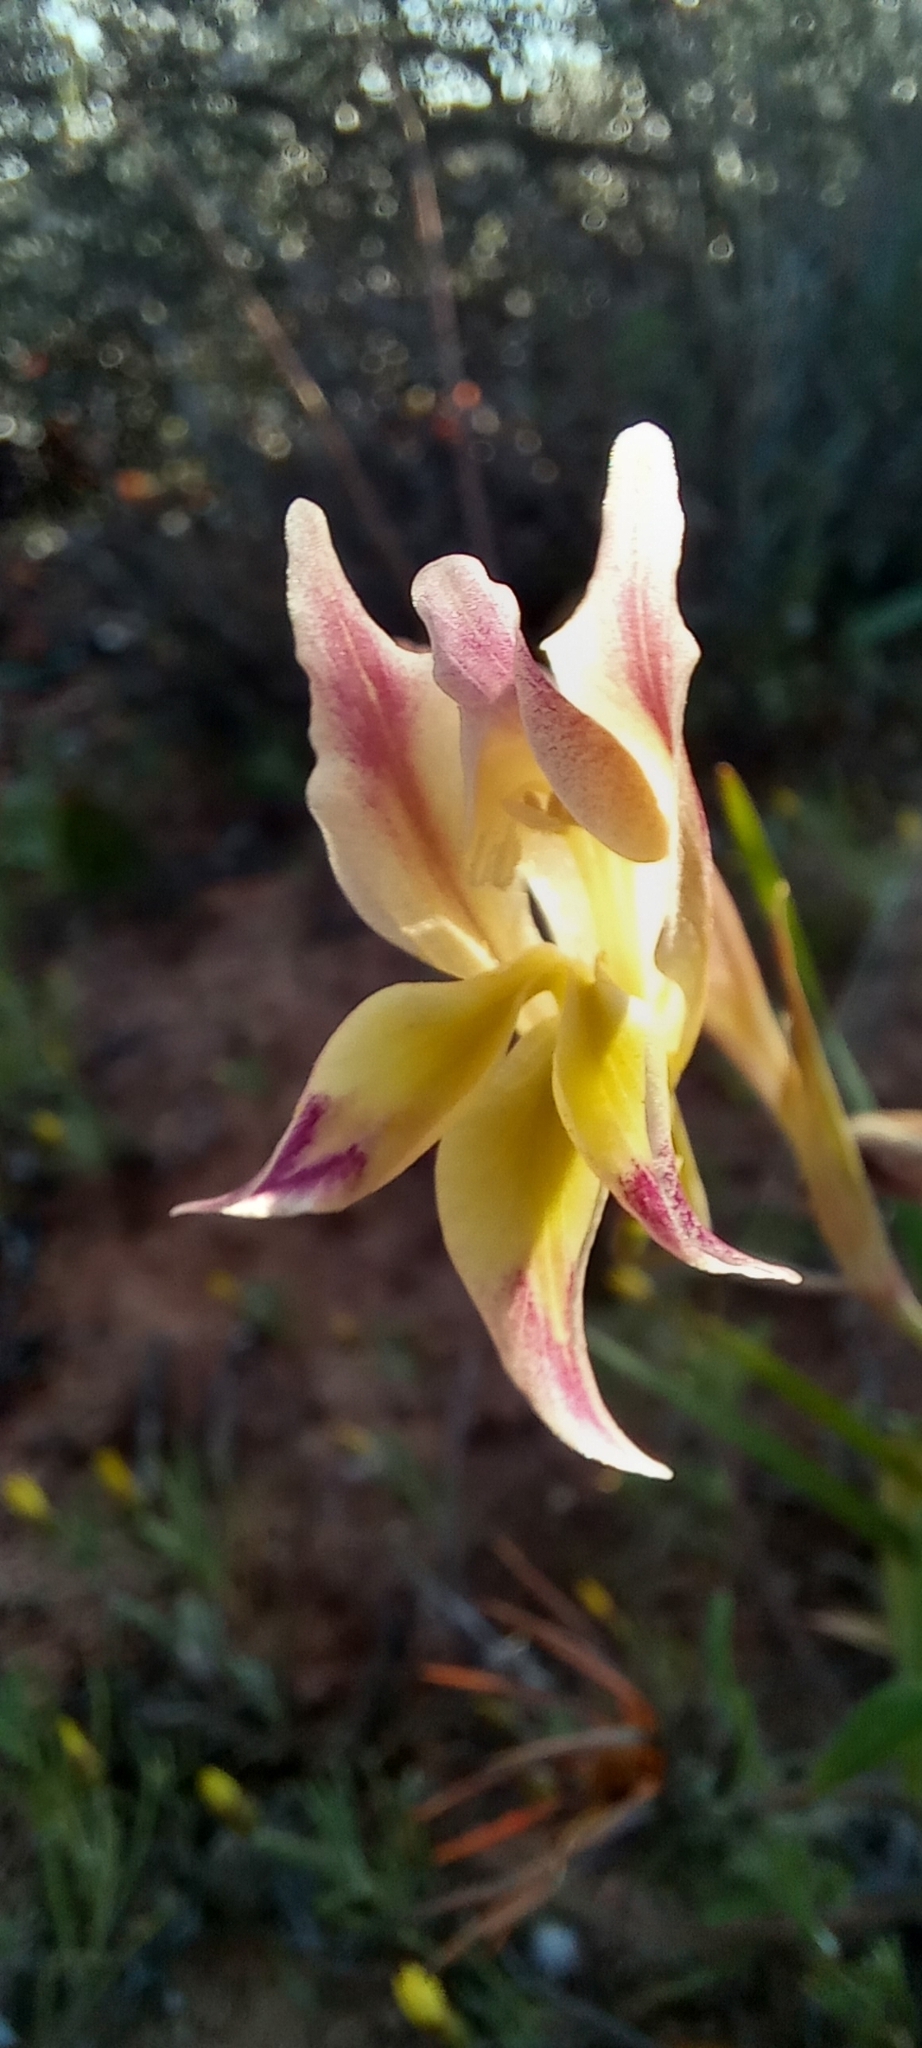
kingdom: Plantae
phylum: Tracheophyta
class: Liliopsida
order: Asparagales
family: Iridaceae
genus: Gladiolus
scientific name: Gladiolus scullyi
